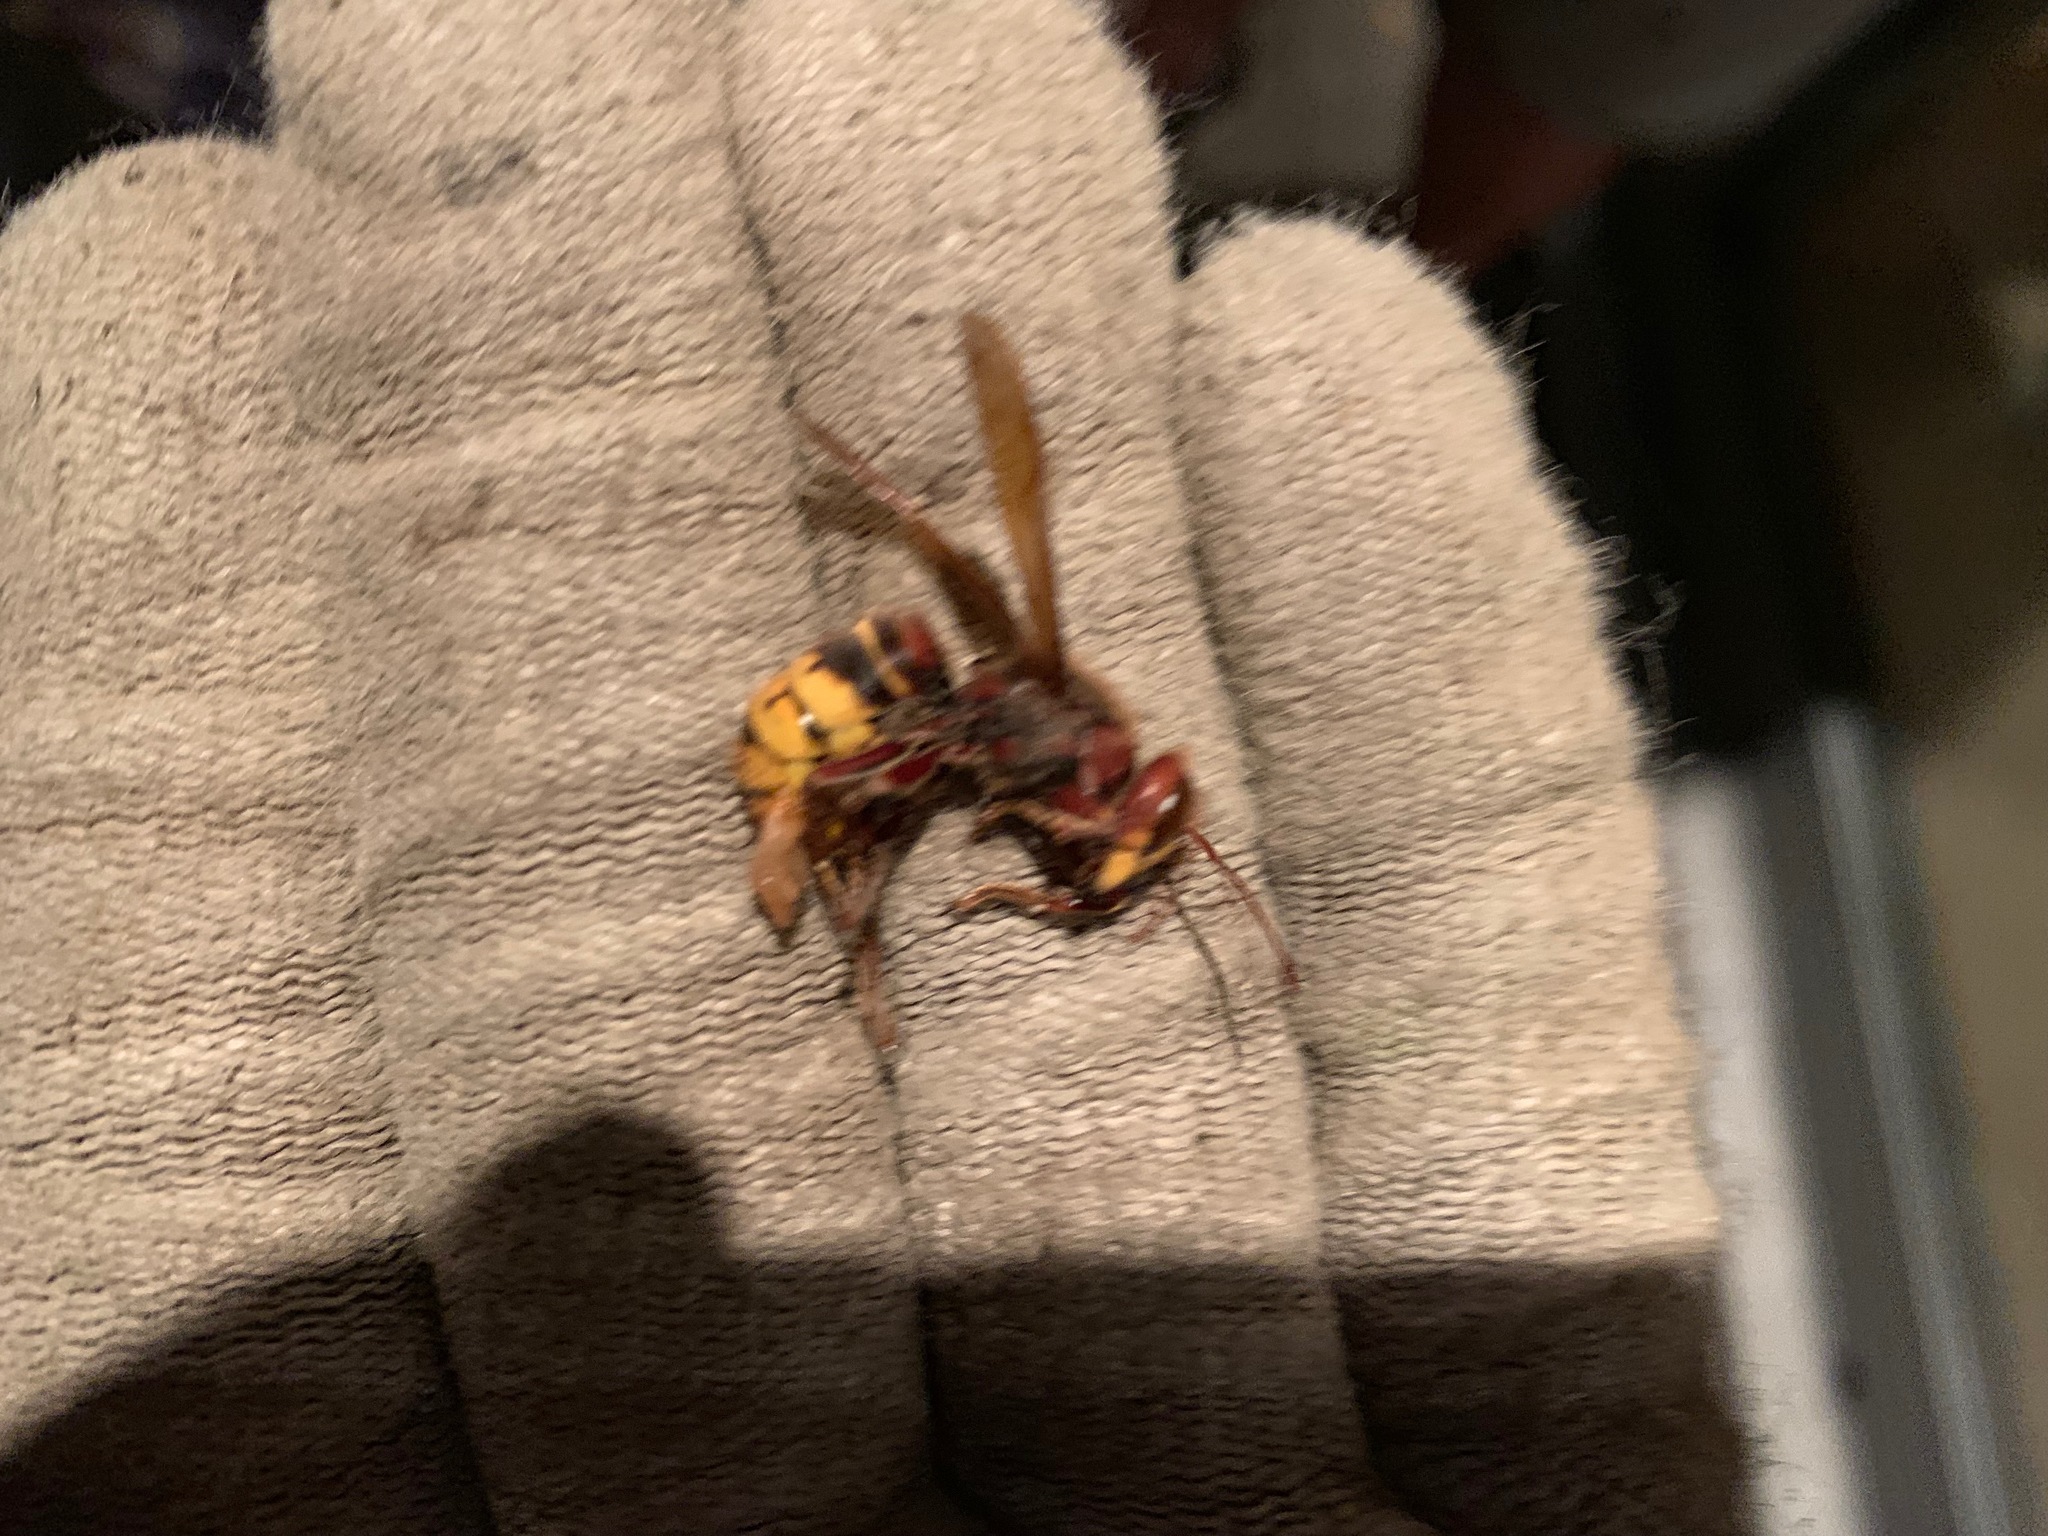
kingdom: Animalia
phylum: Arthropoda
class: Insecta
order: Hymenoptera
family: Vespidae
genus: Vespa
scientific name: Vespa crabro
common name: Hornet
